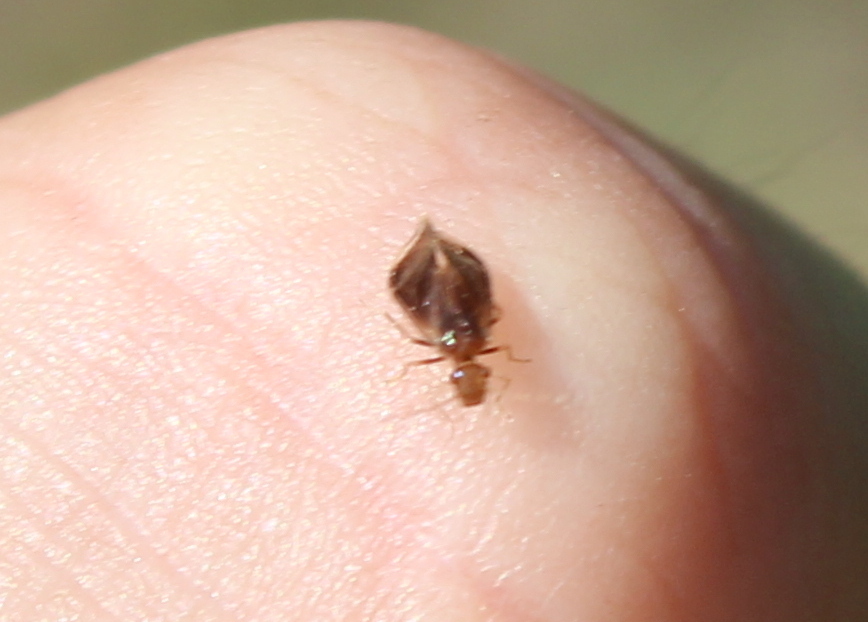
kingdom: Animalia
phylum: Arthropoda
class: Insecta
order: Psocodea
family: Amphipsocidae
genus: Polypsocus
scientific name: Polypsocus corruptus
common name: Corrupt barklouse
